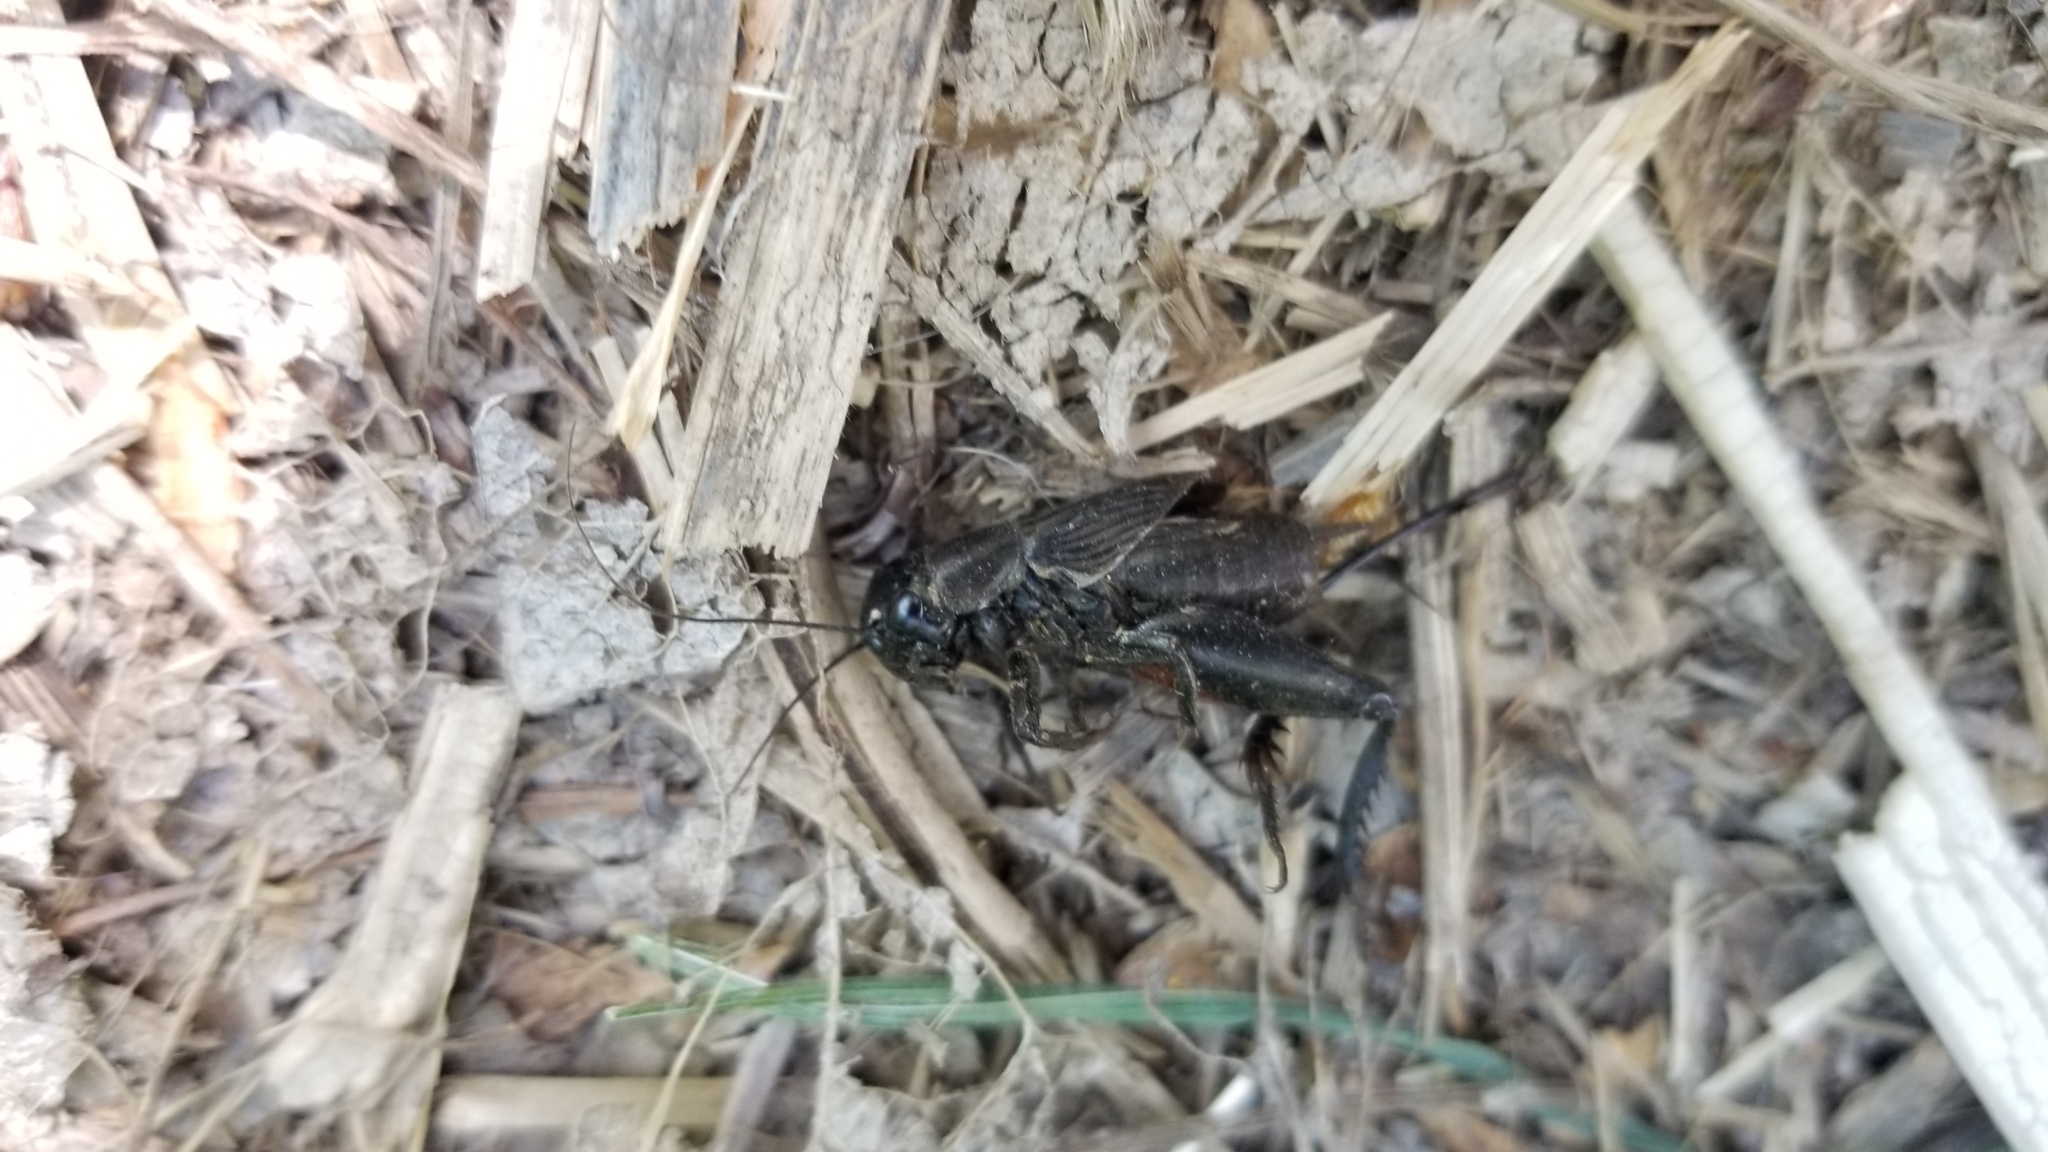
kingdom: Animalia
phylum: Arthropoda
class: Insecta
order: Orthoptera
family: Gryllidae
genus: Gryllus
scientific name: Gryllus
